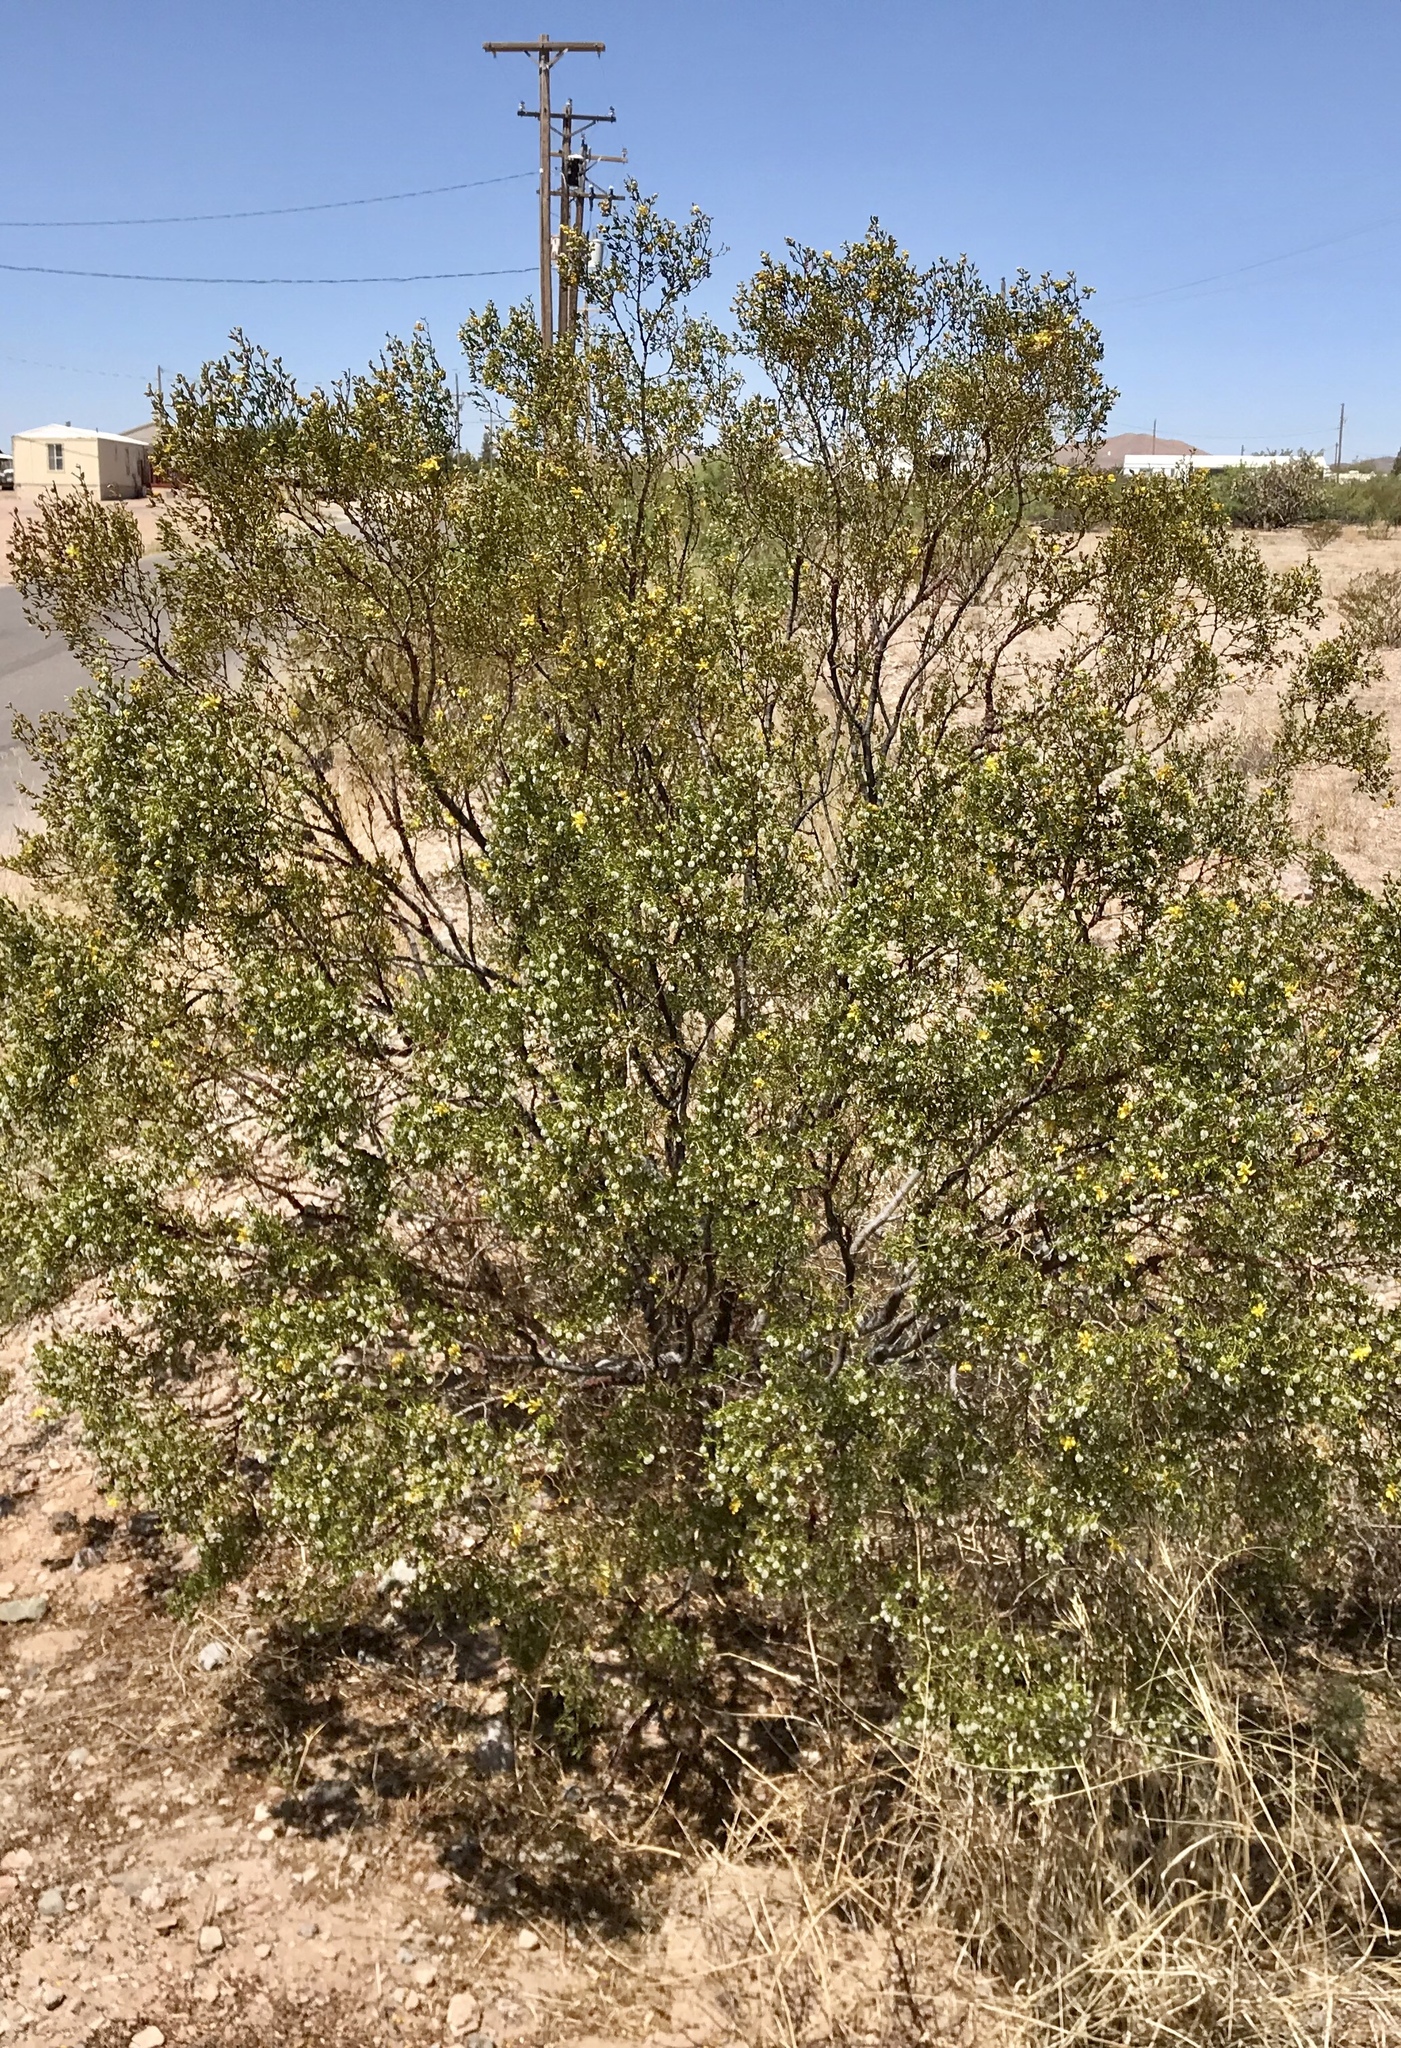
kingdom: Plantae
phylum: Tracheophyta
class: Magnoliopsida
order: Zygophyllales
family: Zygophyllaceae
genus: Larrea
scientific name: Larrea tridentata
